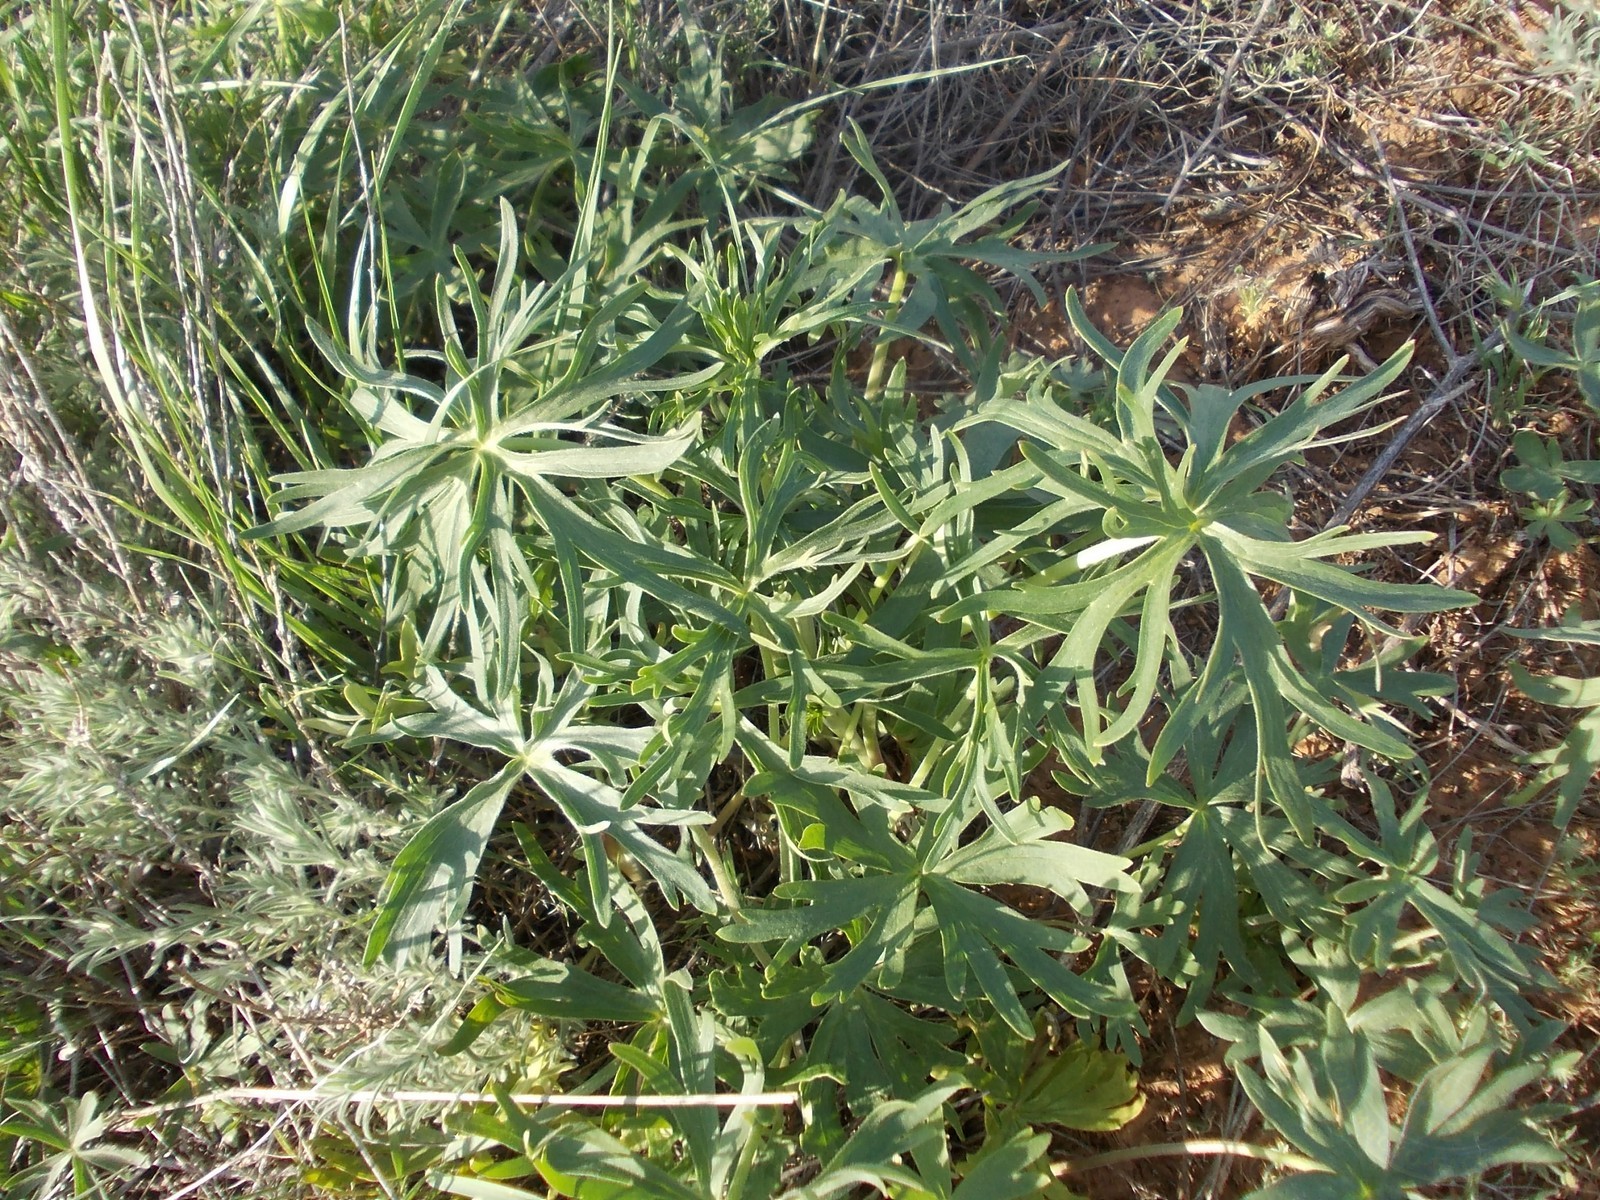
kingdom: Plantae
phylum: Tracheophyta
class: Magnoliopsida
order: Ranunculales
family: Ranunculaceae
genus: Delphinium
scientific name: Delphinium puniceum
